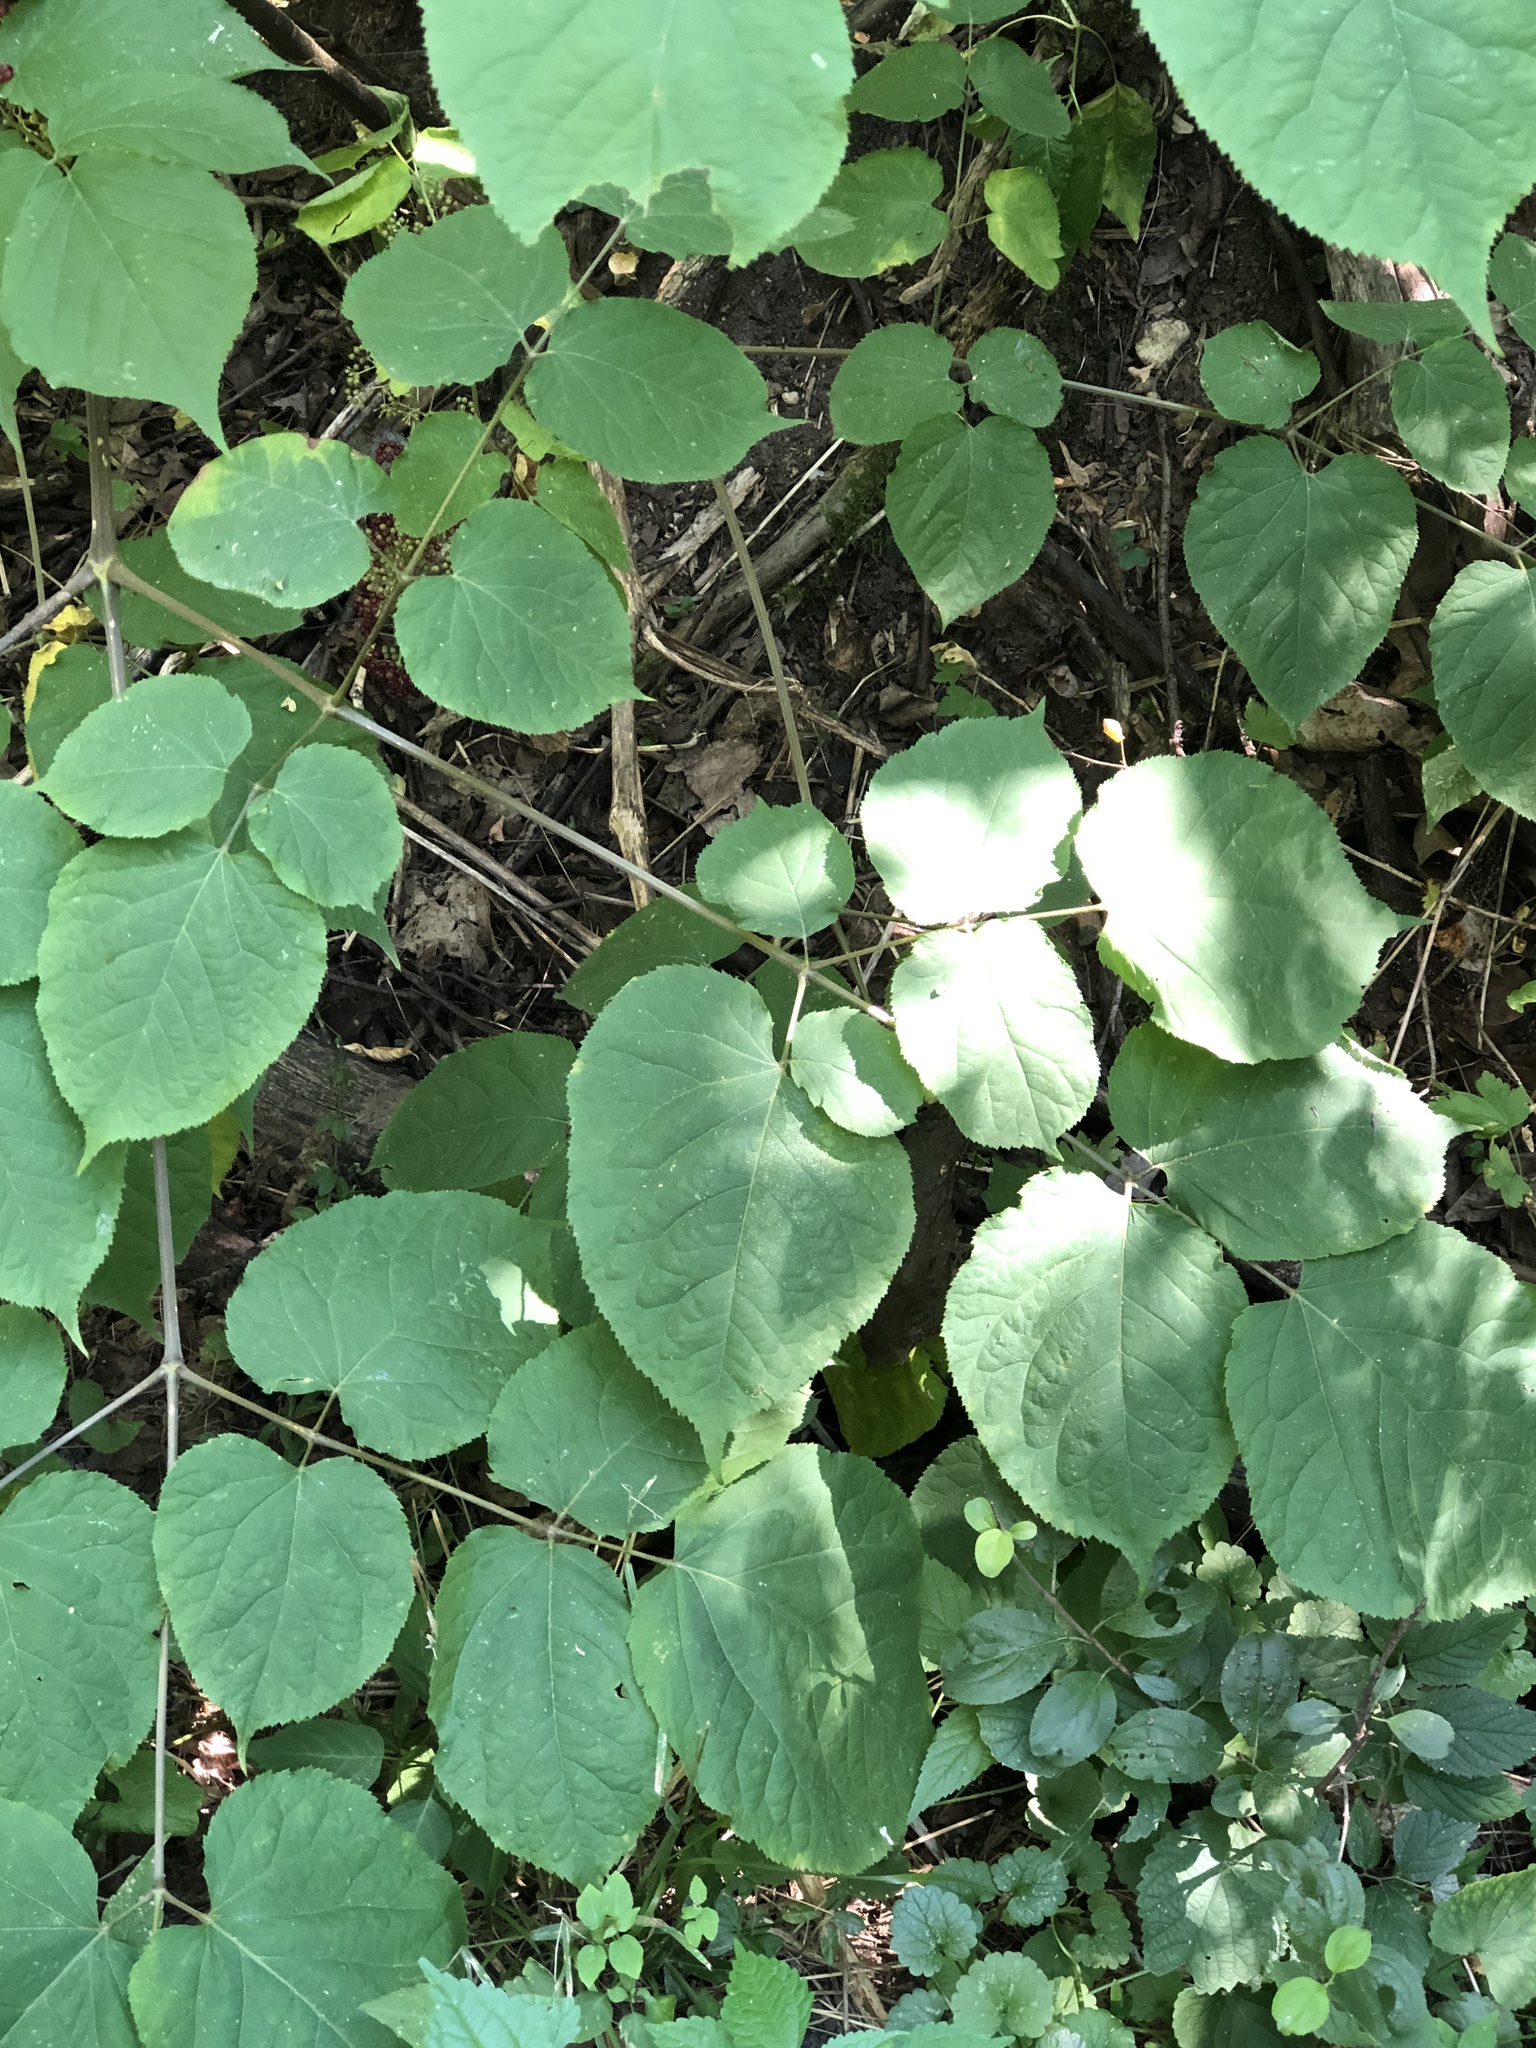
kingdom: Plantae
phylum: Tracheophyta
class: Magnoliopsida
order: Apiales
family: Araliaceae
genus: Aralia
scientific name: Aralia racemosa
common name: American-spikenard
